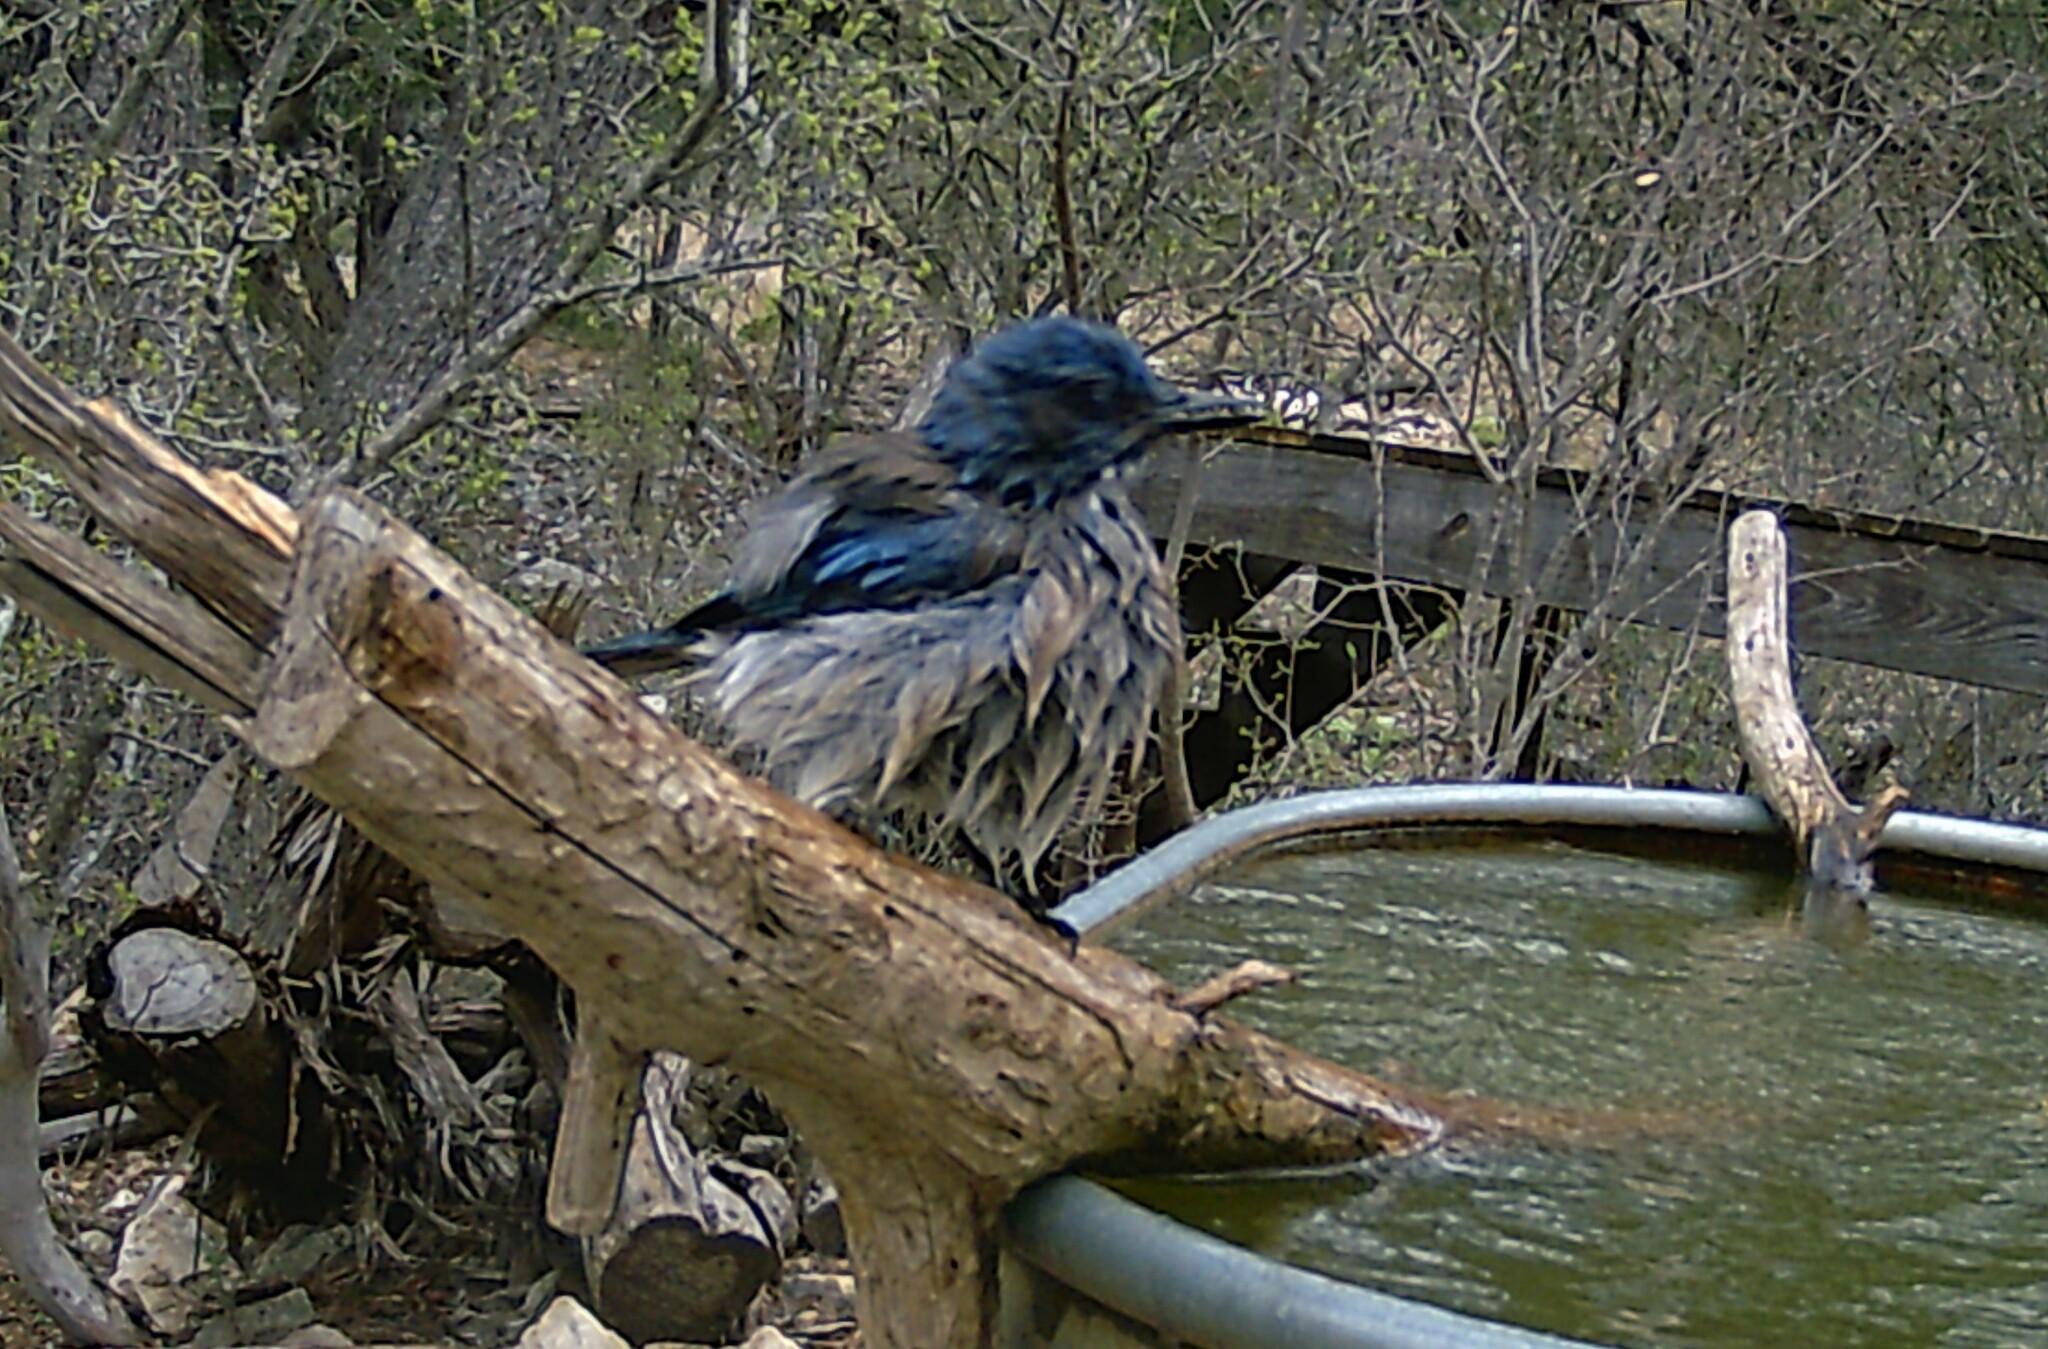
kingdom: Animalia
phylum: Chordata
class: Aves
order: Passeriformes
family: Corvidae
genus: Aphelocoma
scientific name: Aphelocoma woodhouseii
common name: Woodhouse's scrub-jay
